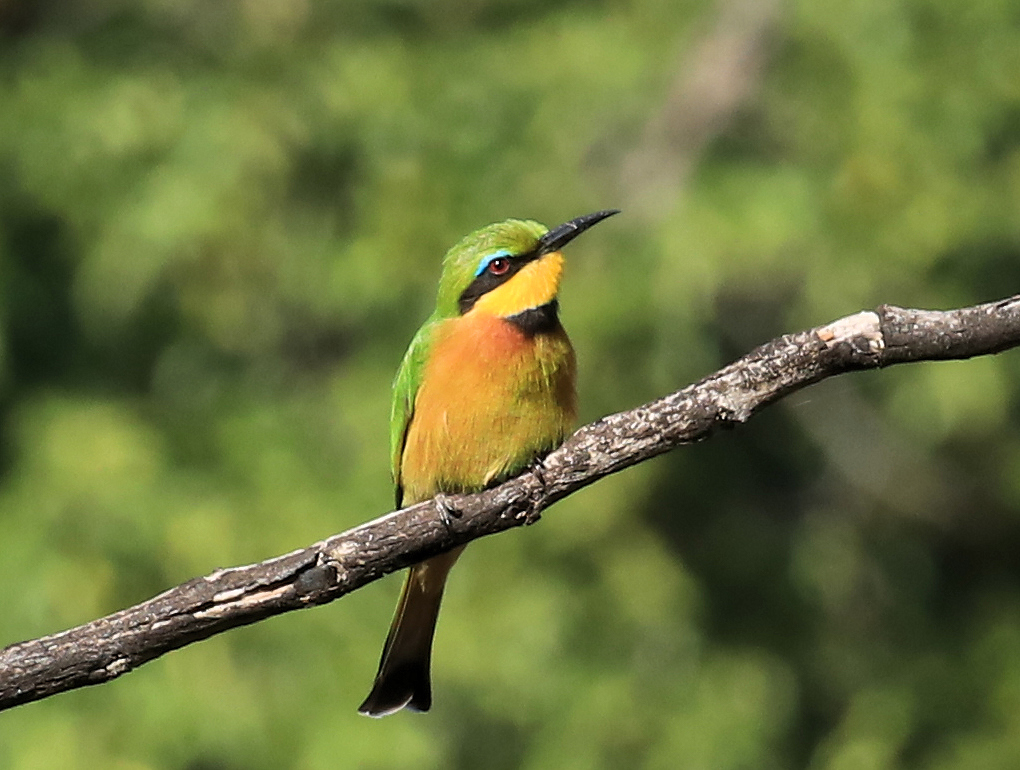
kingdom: Animalia
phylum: Chordata
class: Aves
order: Coraciiformes
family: Meropidae
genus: Merops
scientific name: Merops pusillus
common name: Little bee-eater
